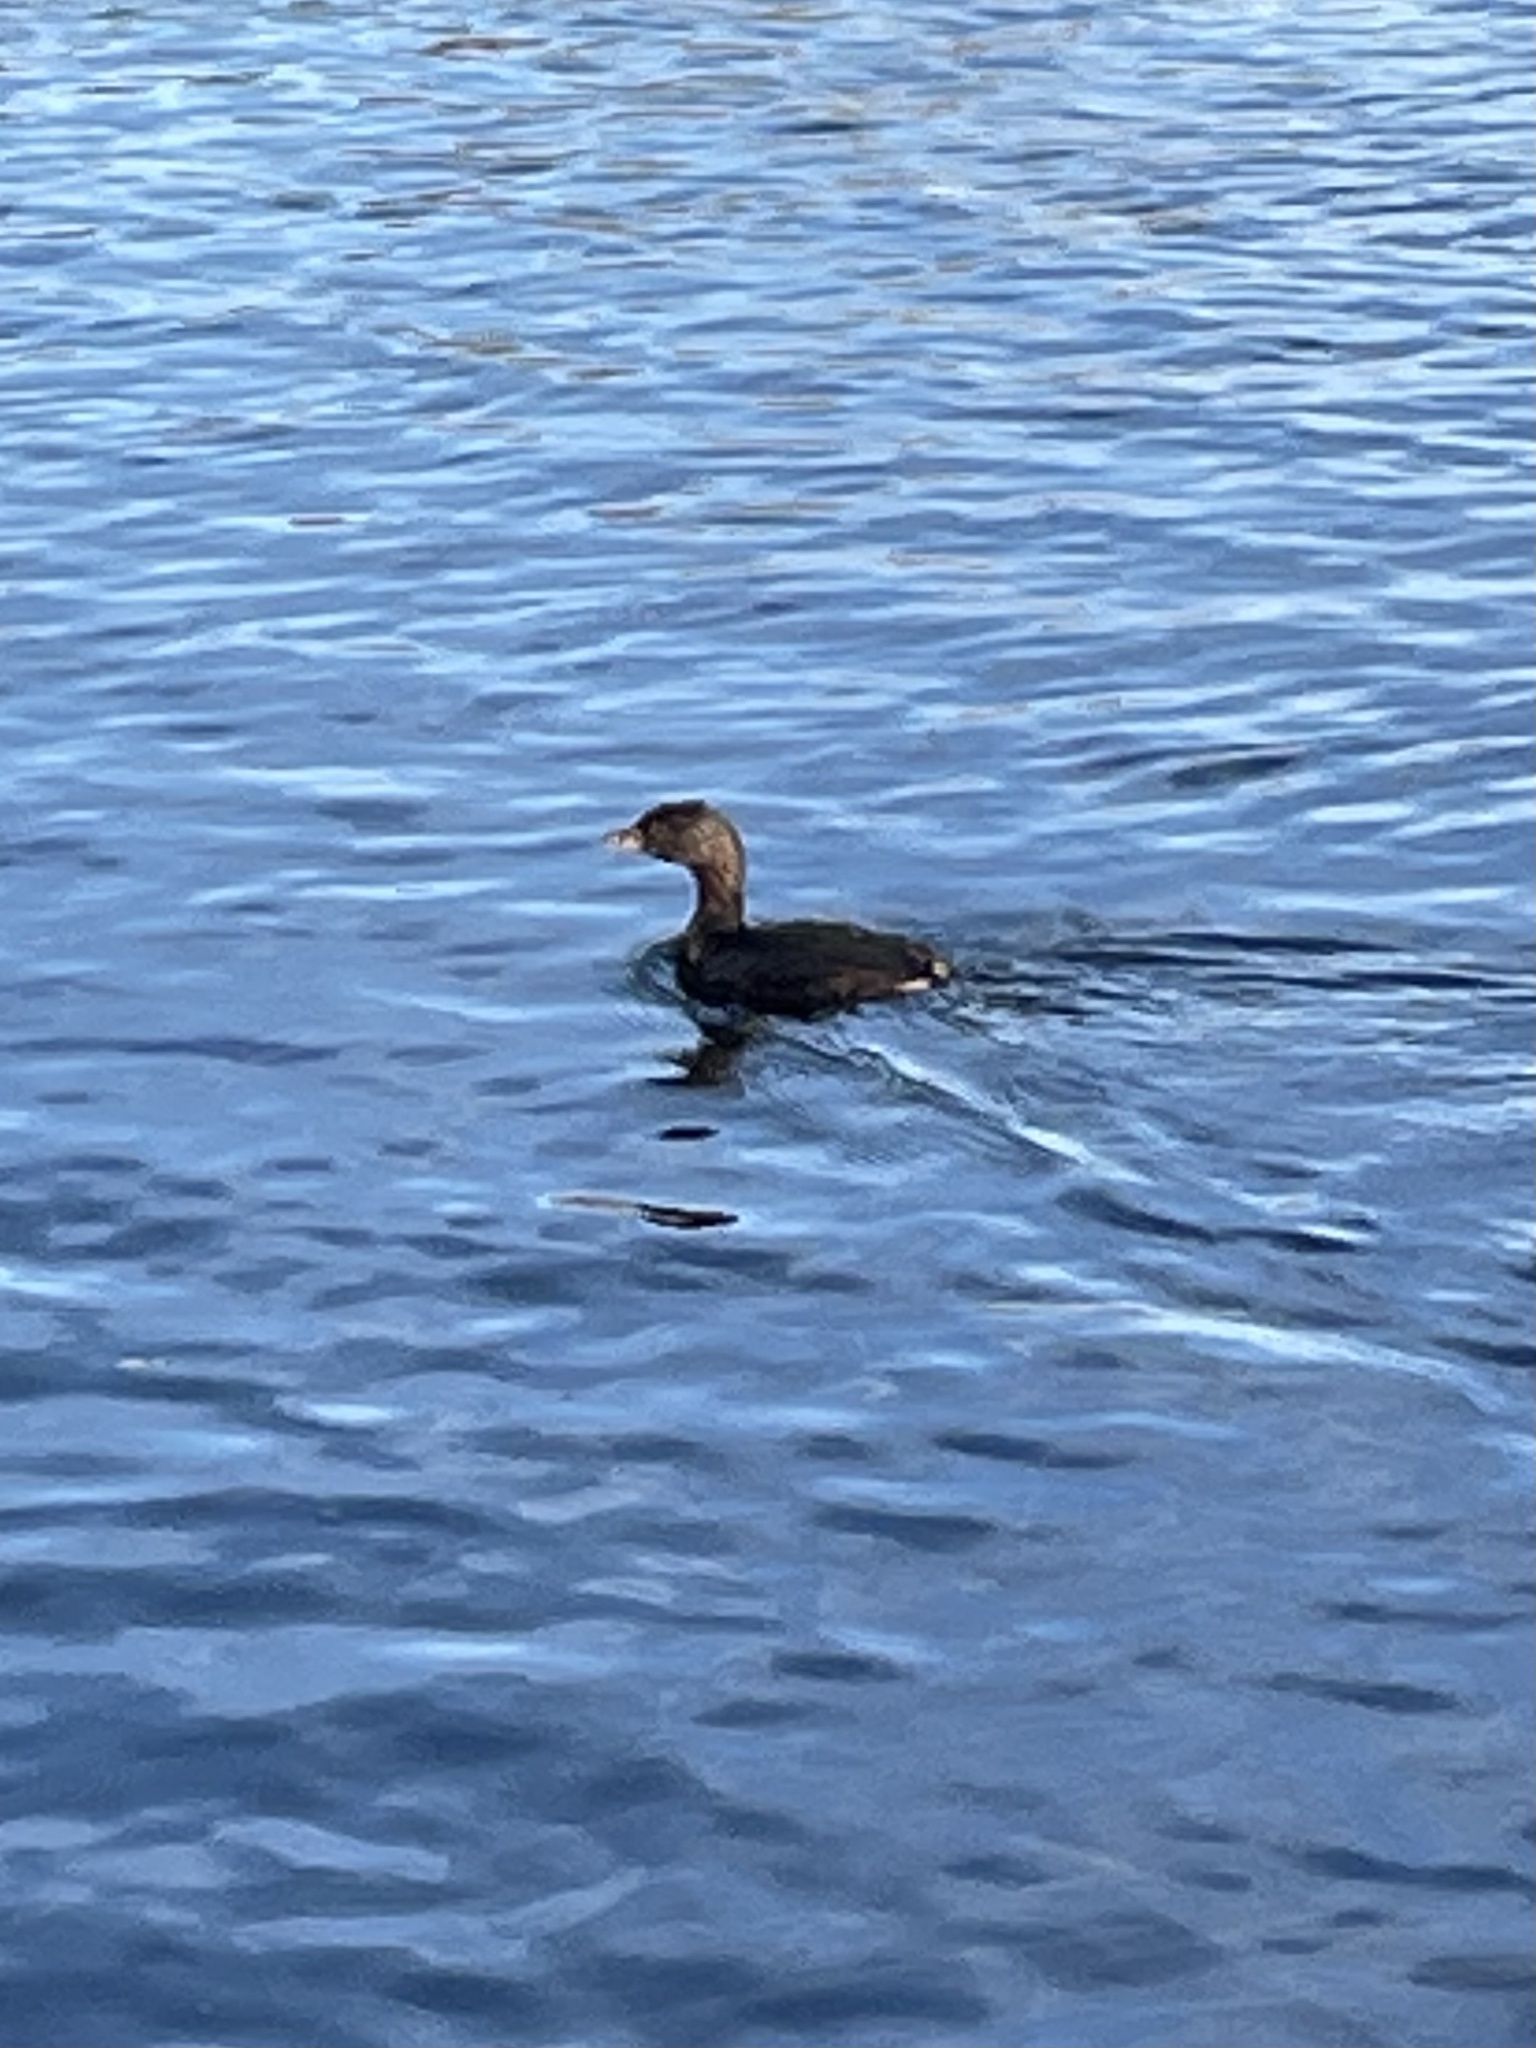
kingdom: Animalia
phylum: Chordata
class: Aves
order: Podicipediformes
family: Podicipedidae
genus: Podilymbus
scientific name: Podilymbus podiceps
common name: Pied-billed grebe
